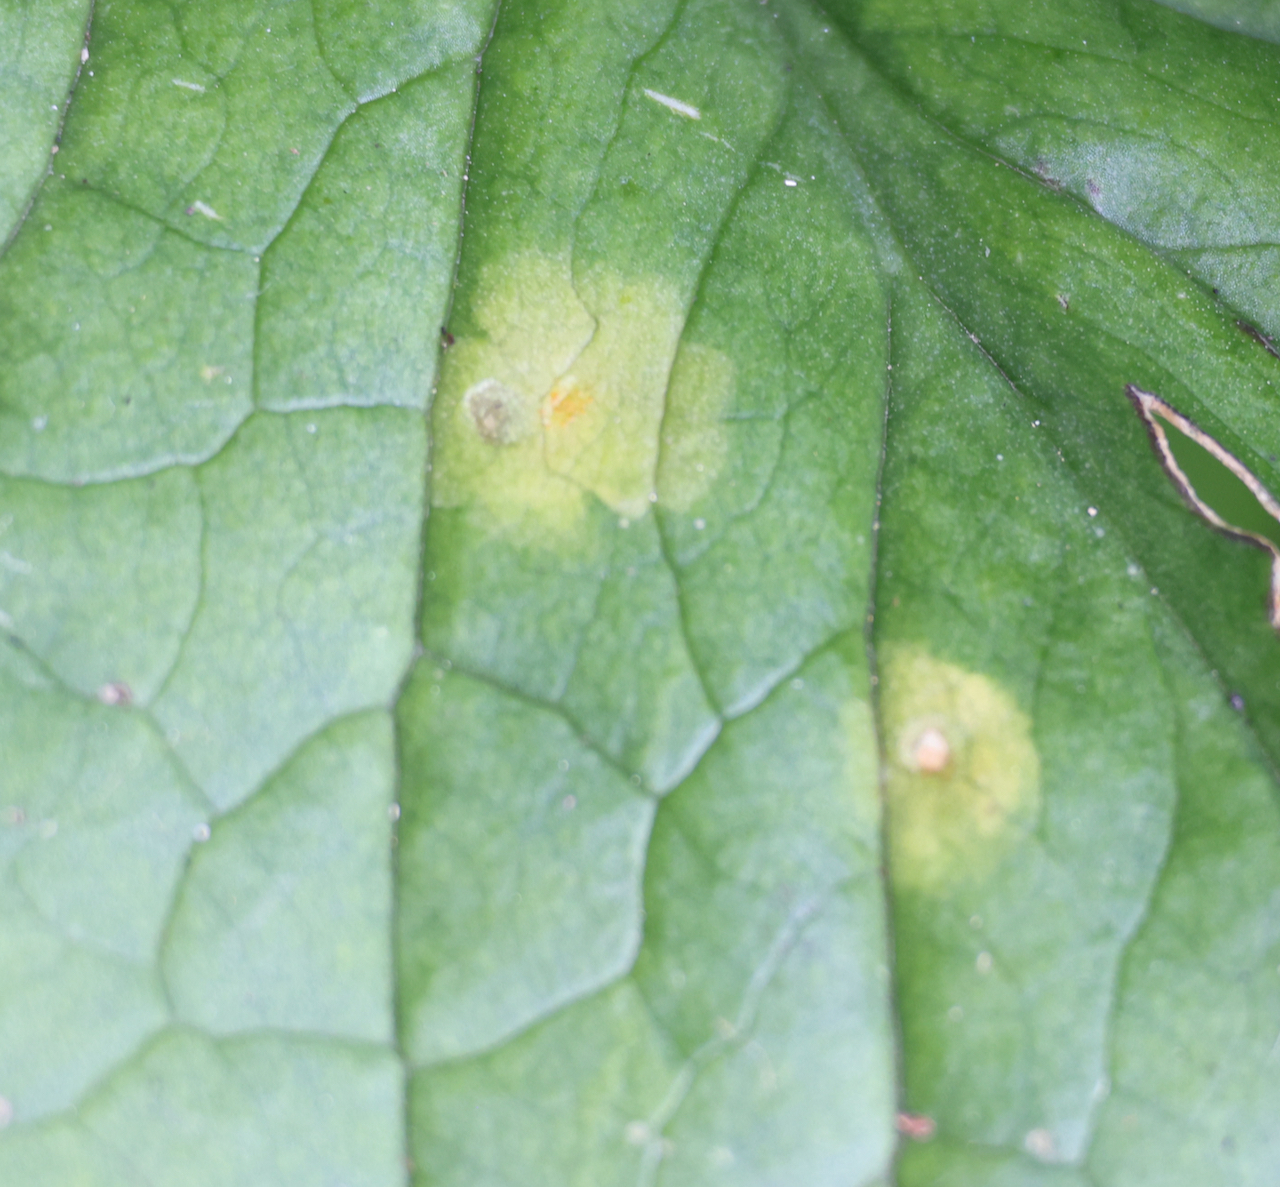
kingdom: Fungi
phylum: Basidiomycota
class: Pucciniomycetes
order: Pucciniales
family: Pucciniaceae
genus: Puccinia
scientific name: Puccinia sessilis
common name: Arum rust
